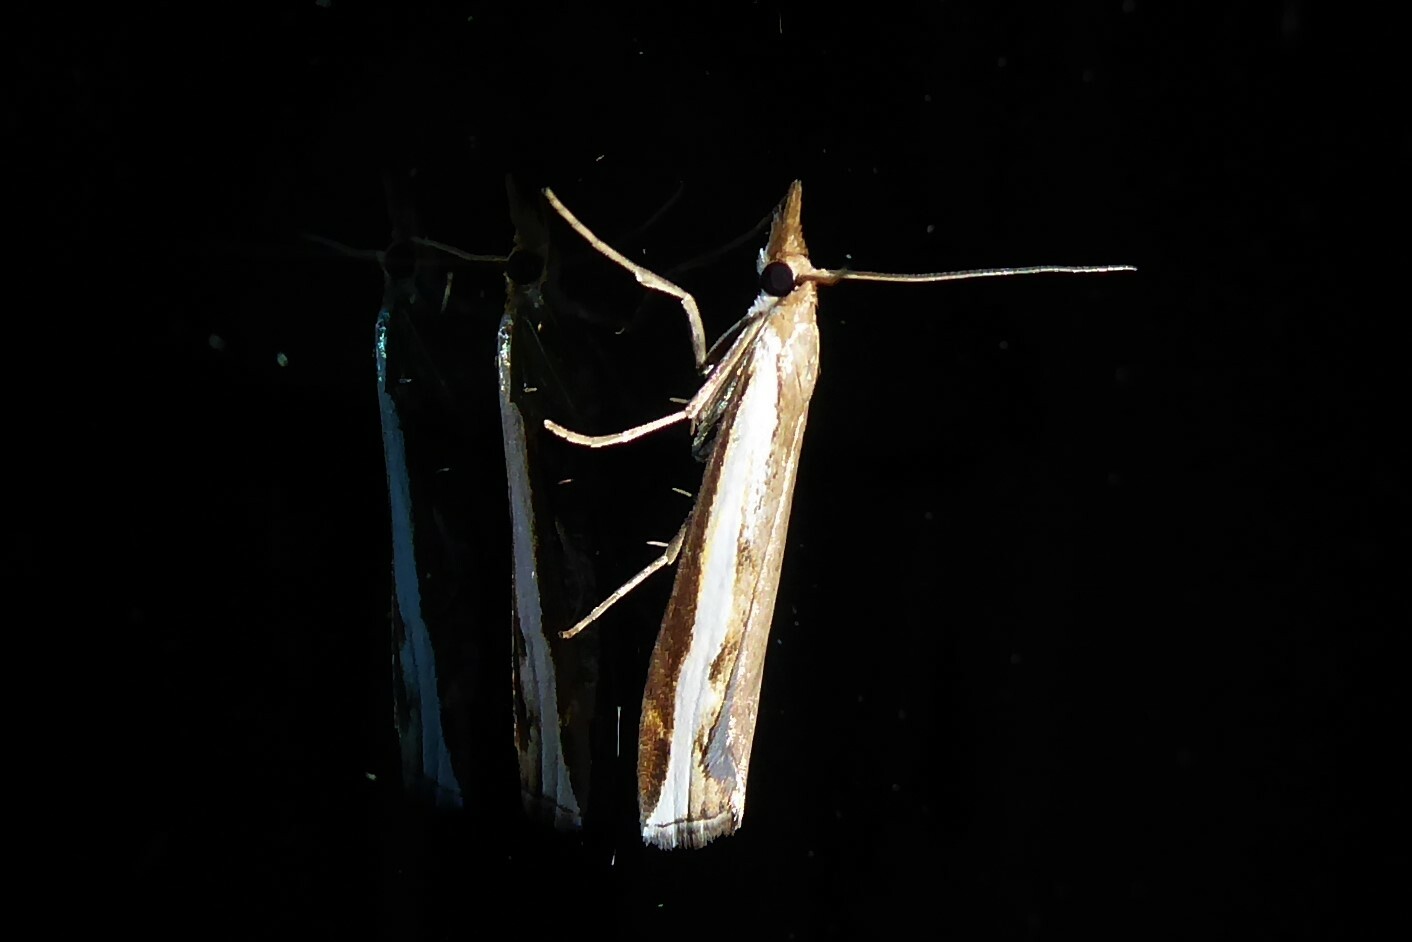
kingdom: Animalia
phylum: Arthropoda
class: Insecta
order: Lepidoptera
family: Crambidae
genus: Orocrambus
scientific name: Orocrambus flexuosellus
